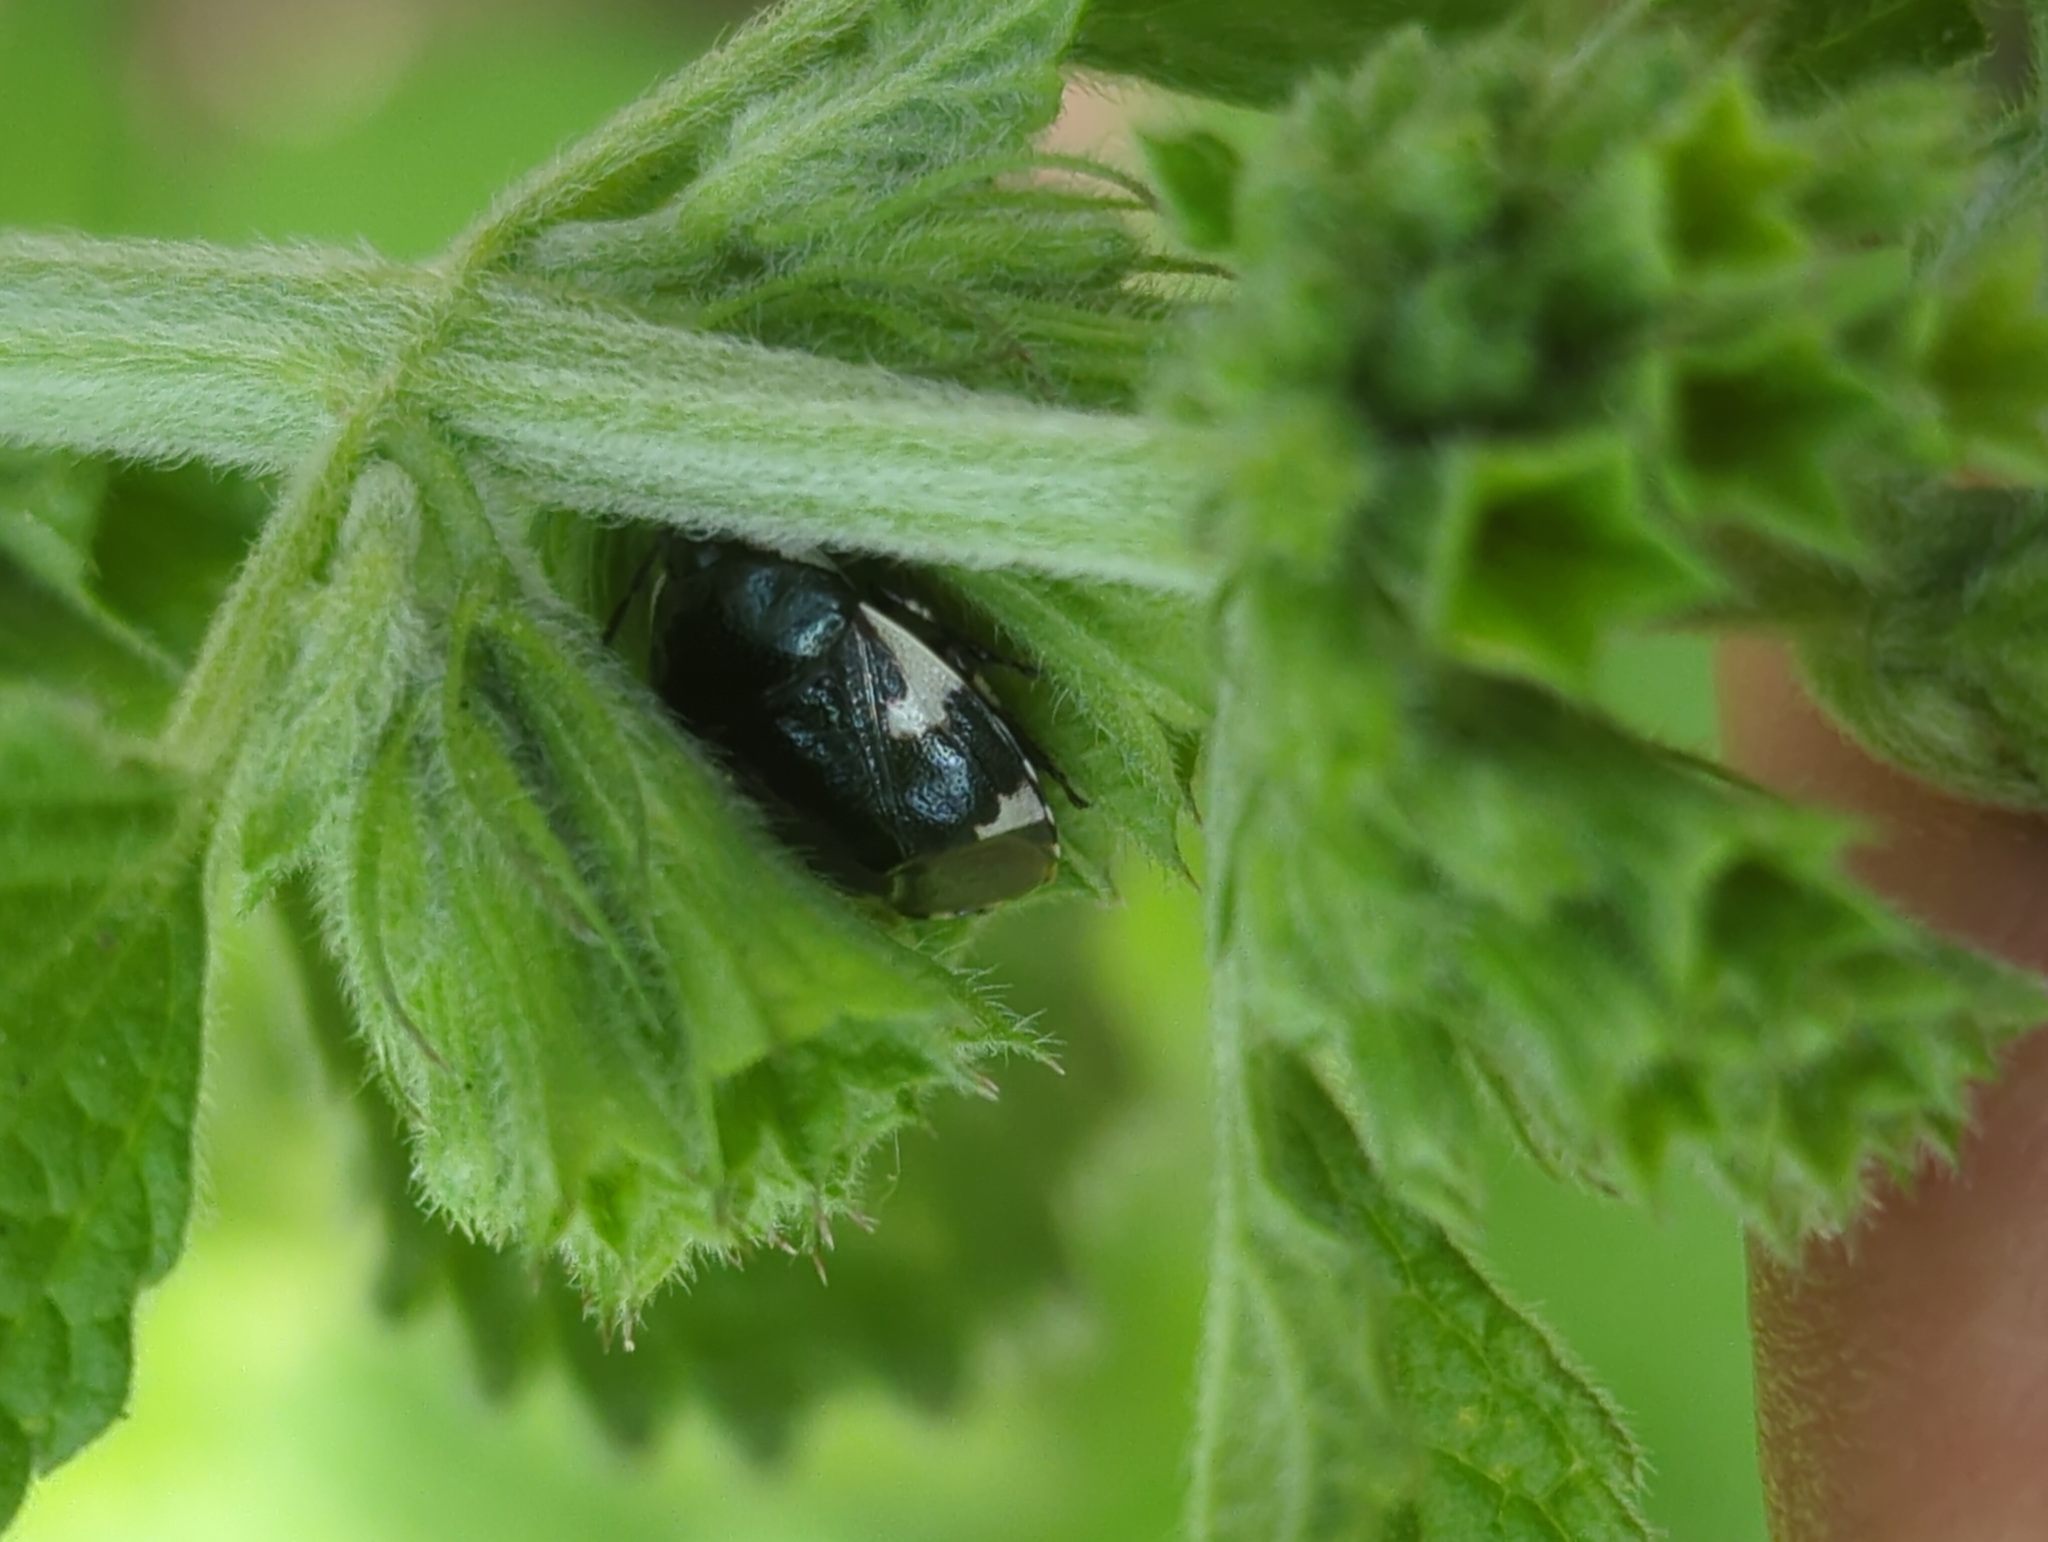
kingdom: Animalia
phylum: Arthropoda
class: Insecta
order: Hemiptera
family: Cydnidae
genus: Tritomegas
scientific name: Tritomegas sexmaculatus
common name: Rambur's pied shieldbug
